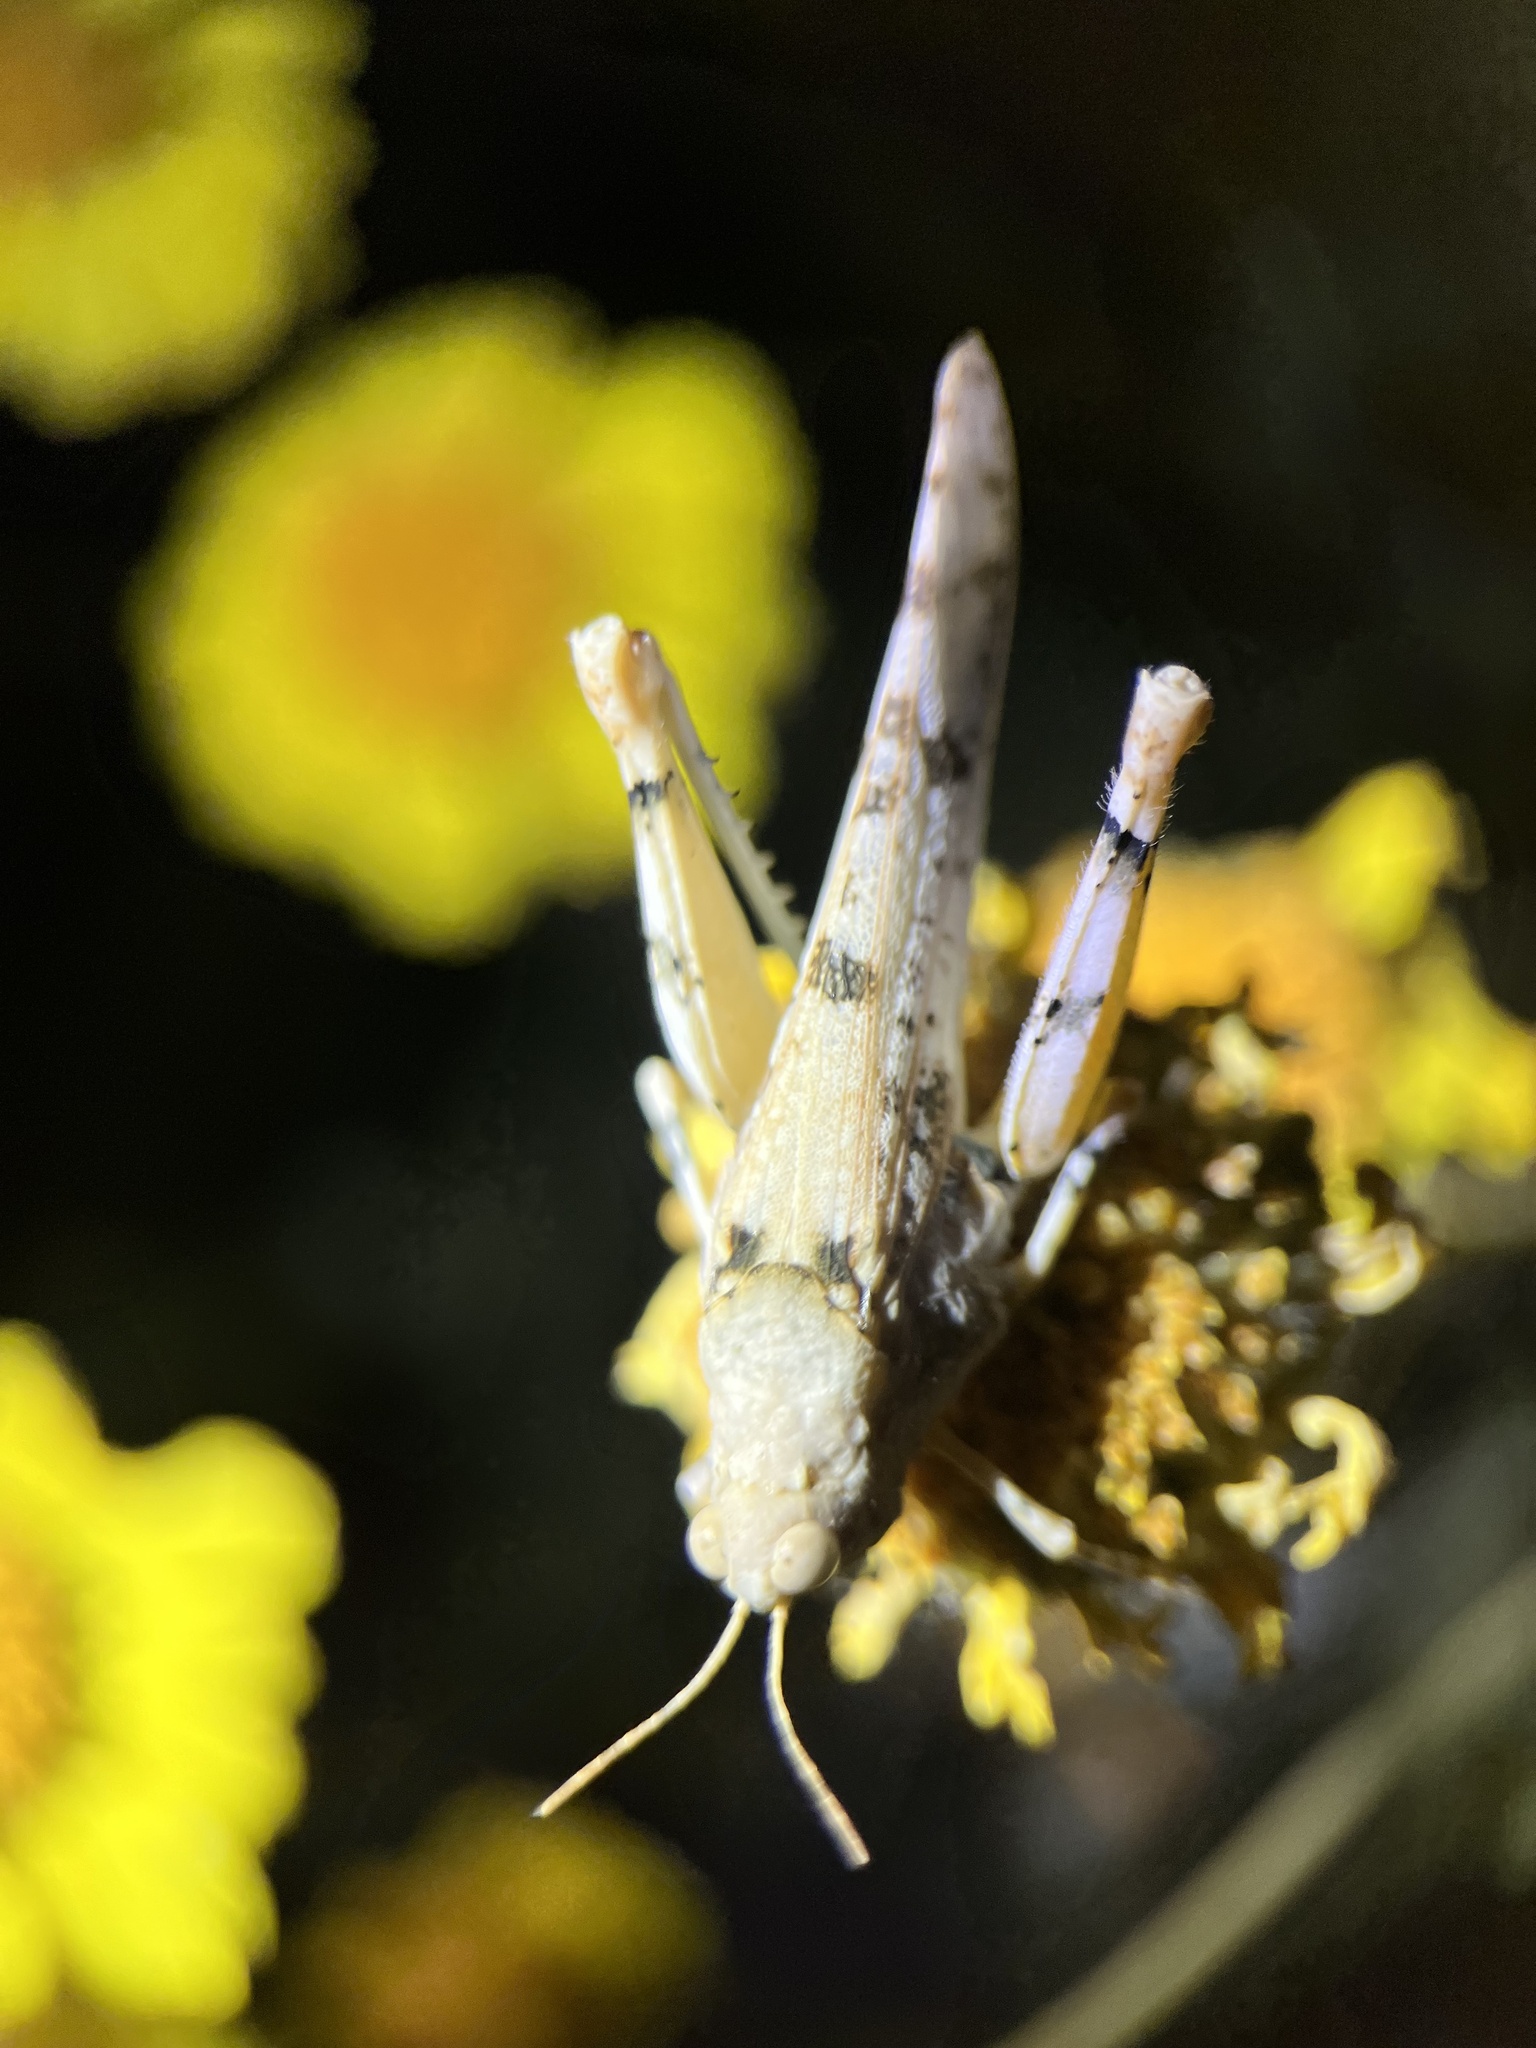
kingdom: Animalia
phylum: Arthropoda
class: Insecta
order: Orthoptera
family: Acrididae
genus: Cibolacris
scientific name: Cibolacris parviceps
